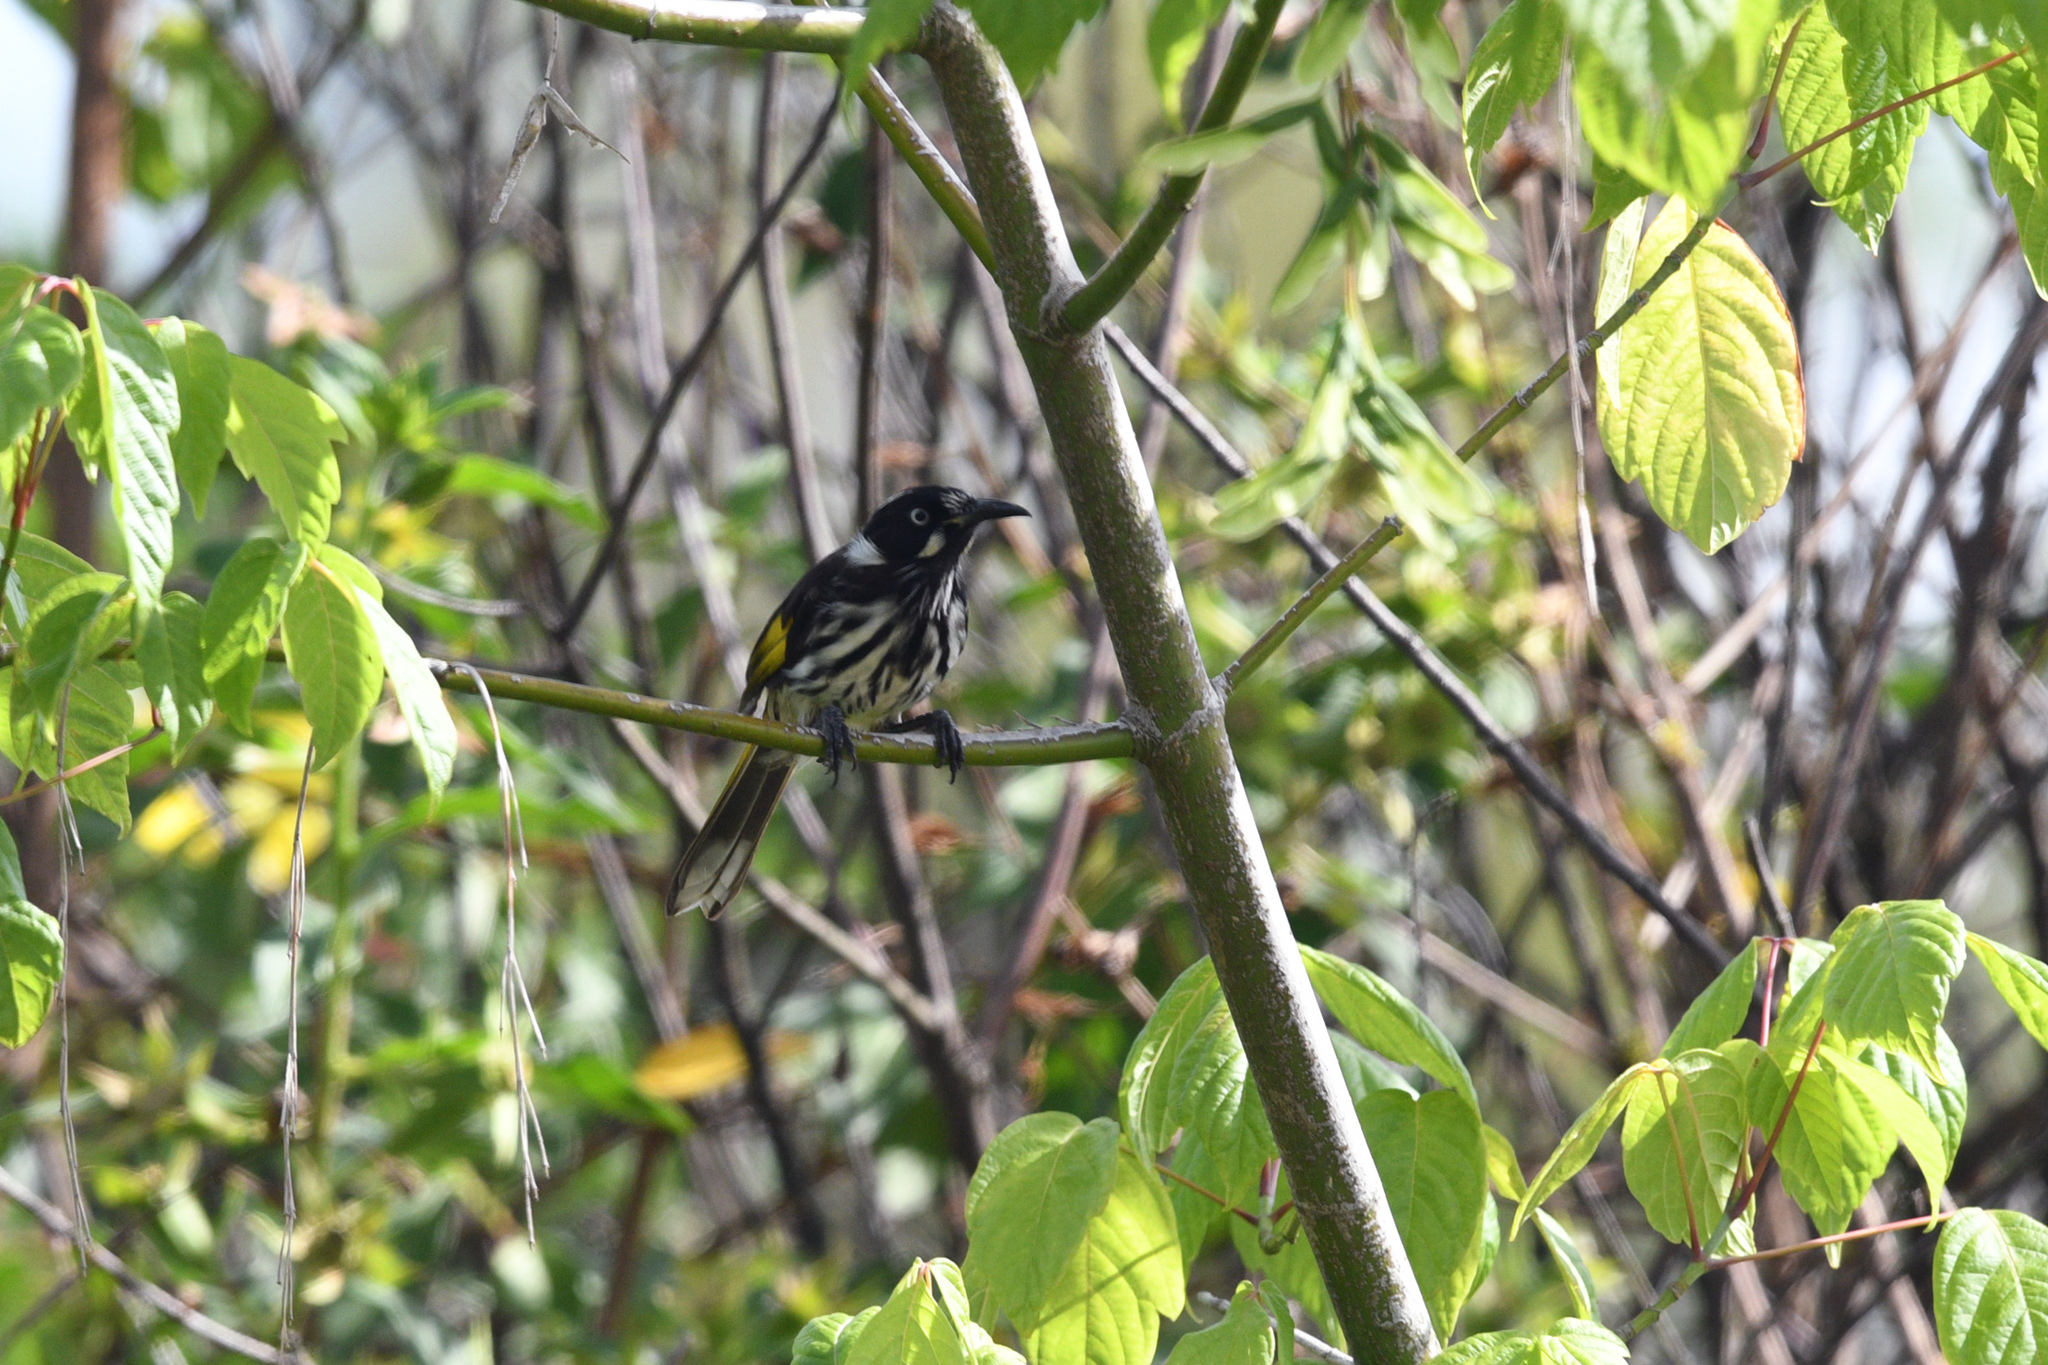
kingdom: Animalia
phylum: Chordata
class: Aves
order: Passeriformes
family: Meliphagidae
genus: Phylidonyris
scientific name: Phylidonyris novaehollandiae
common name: New holland honeyeater
